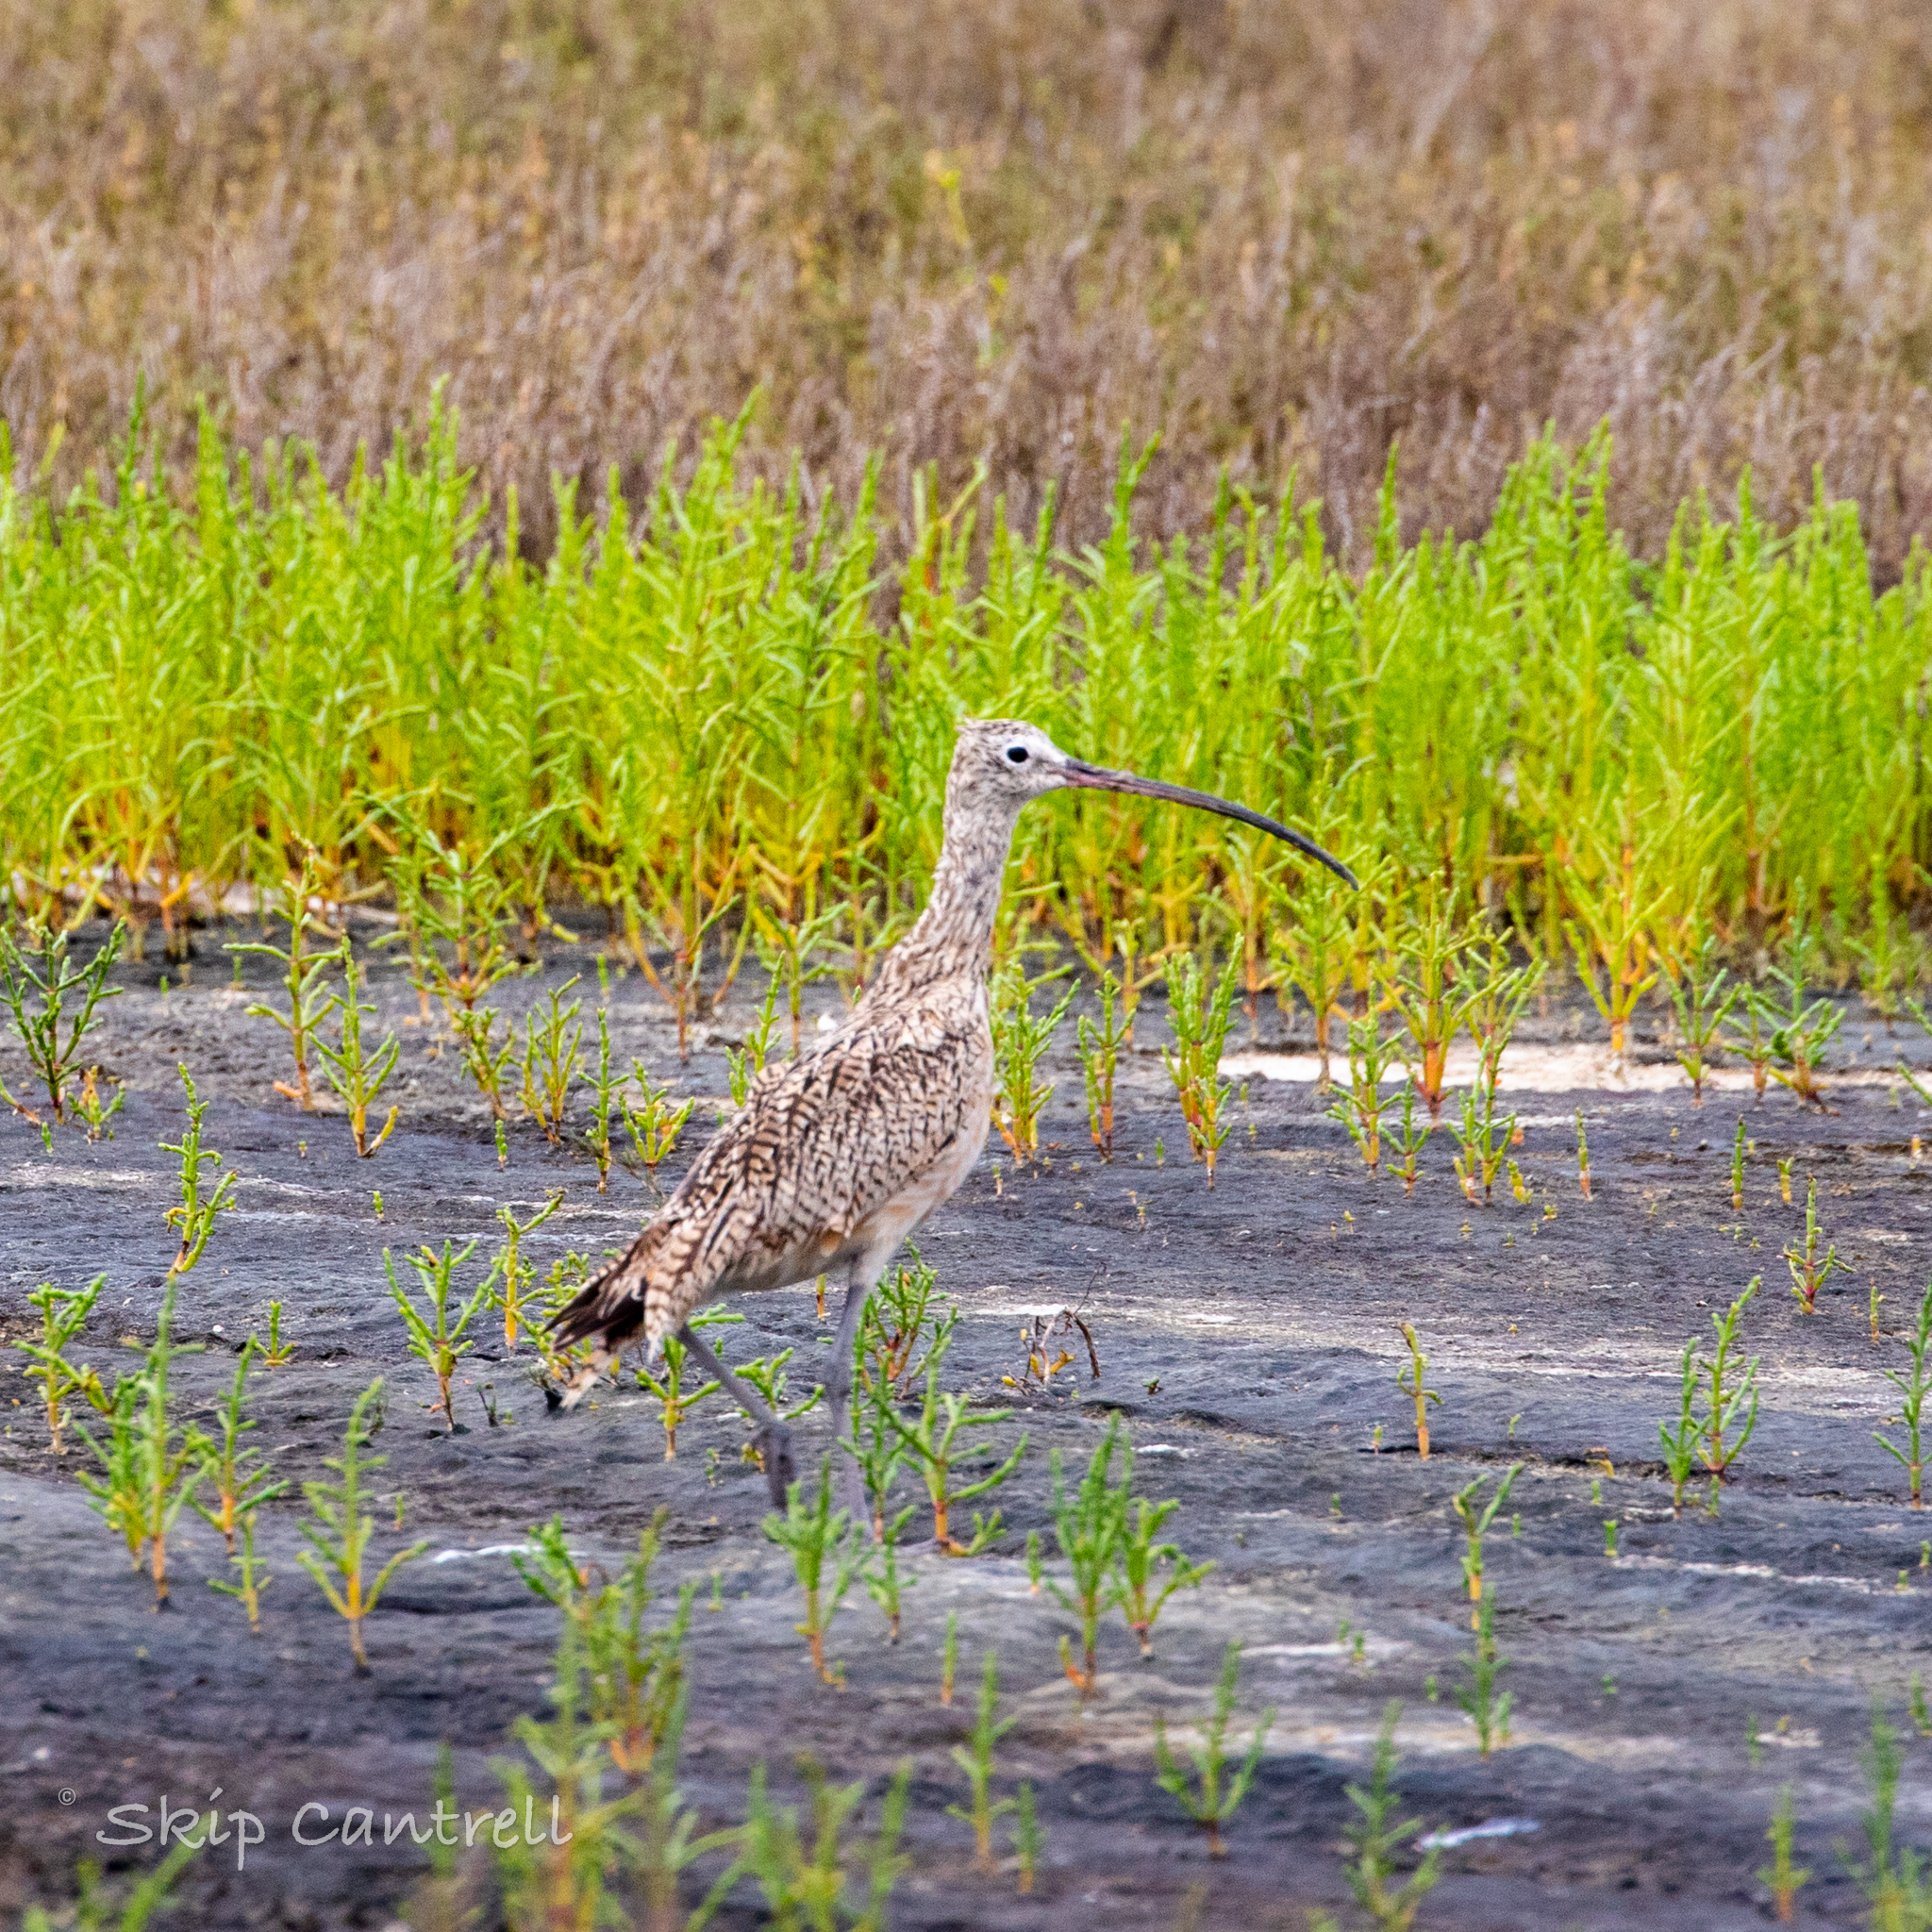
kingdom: Animalia
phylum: Chordata
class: Aves
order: Charadriiformes
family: Scolopacidae
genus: Numenius
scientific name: Numenius americanus
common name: Long-billed curlew
